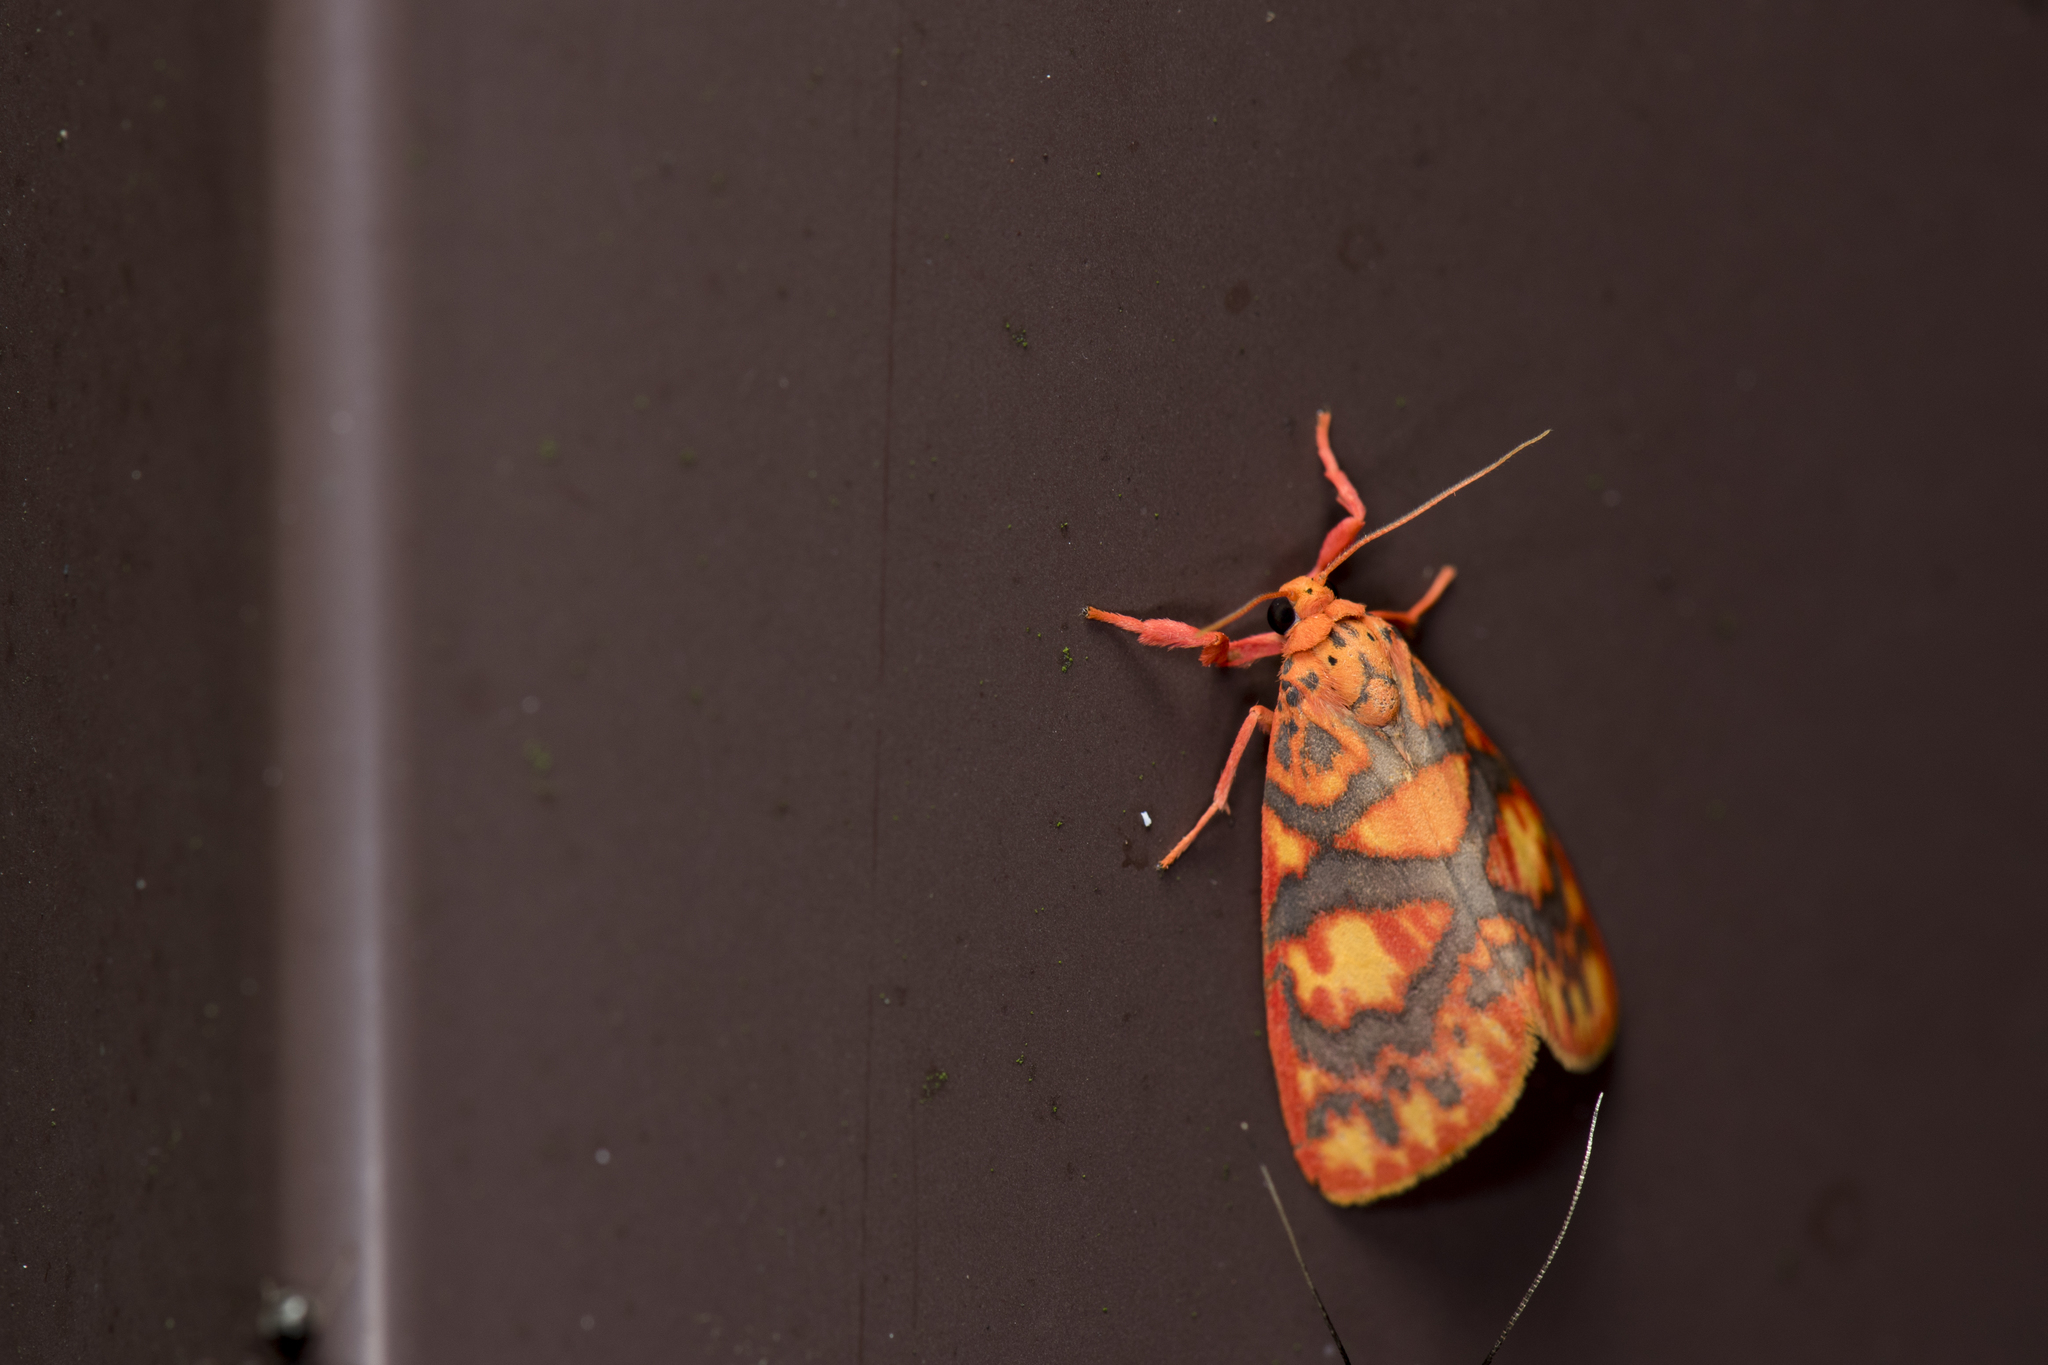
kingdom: Animalia
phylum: Arthropoda
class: Insecta
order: Lepidoptera
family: Erebidae
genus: Floridasura
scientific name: Floridasura tricolor
